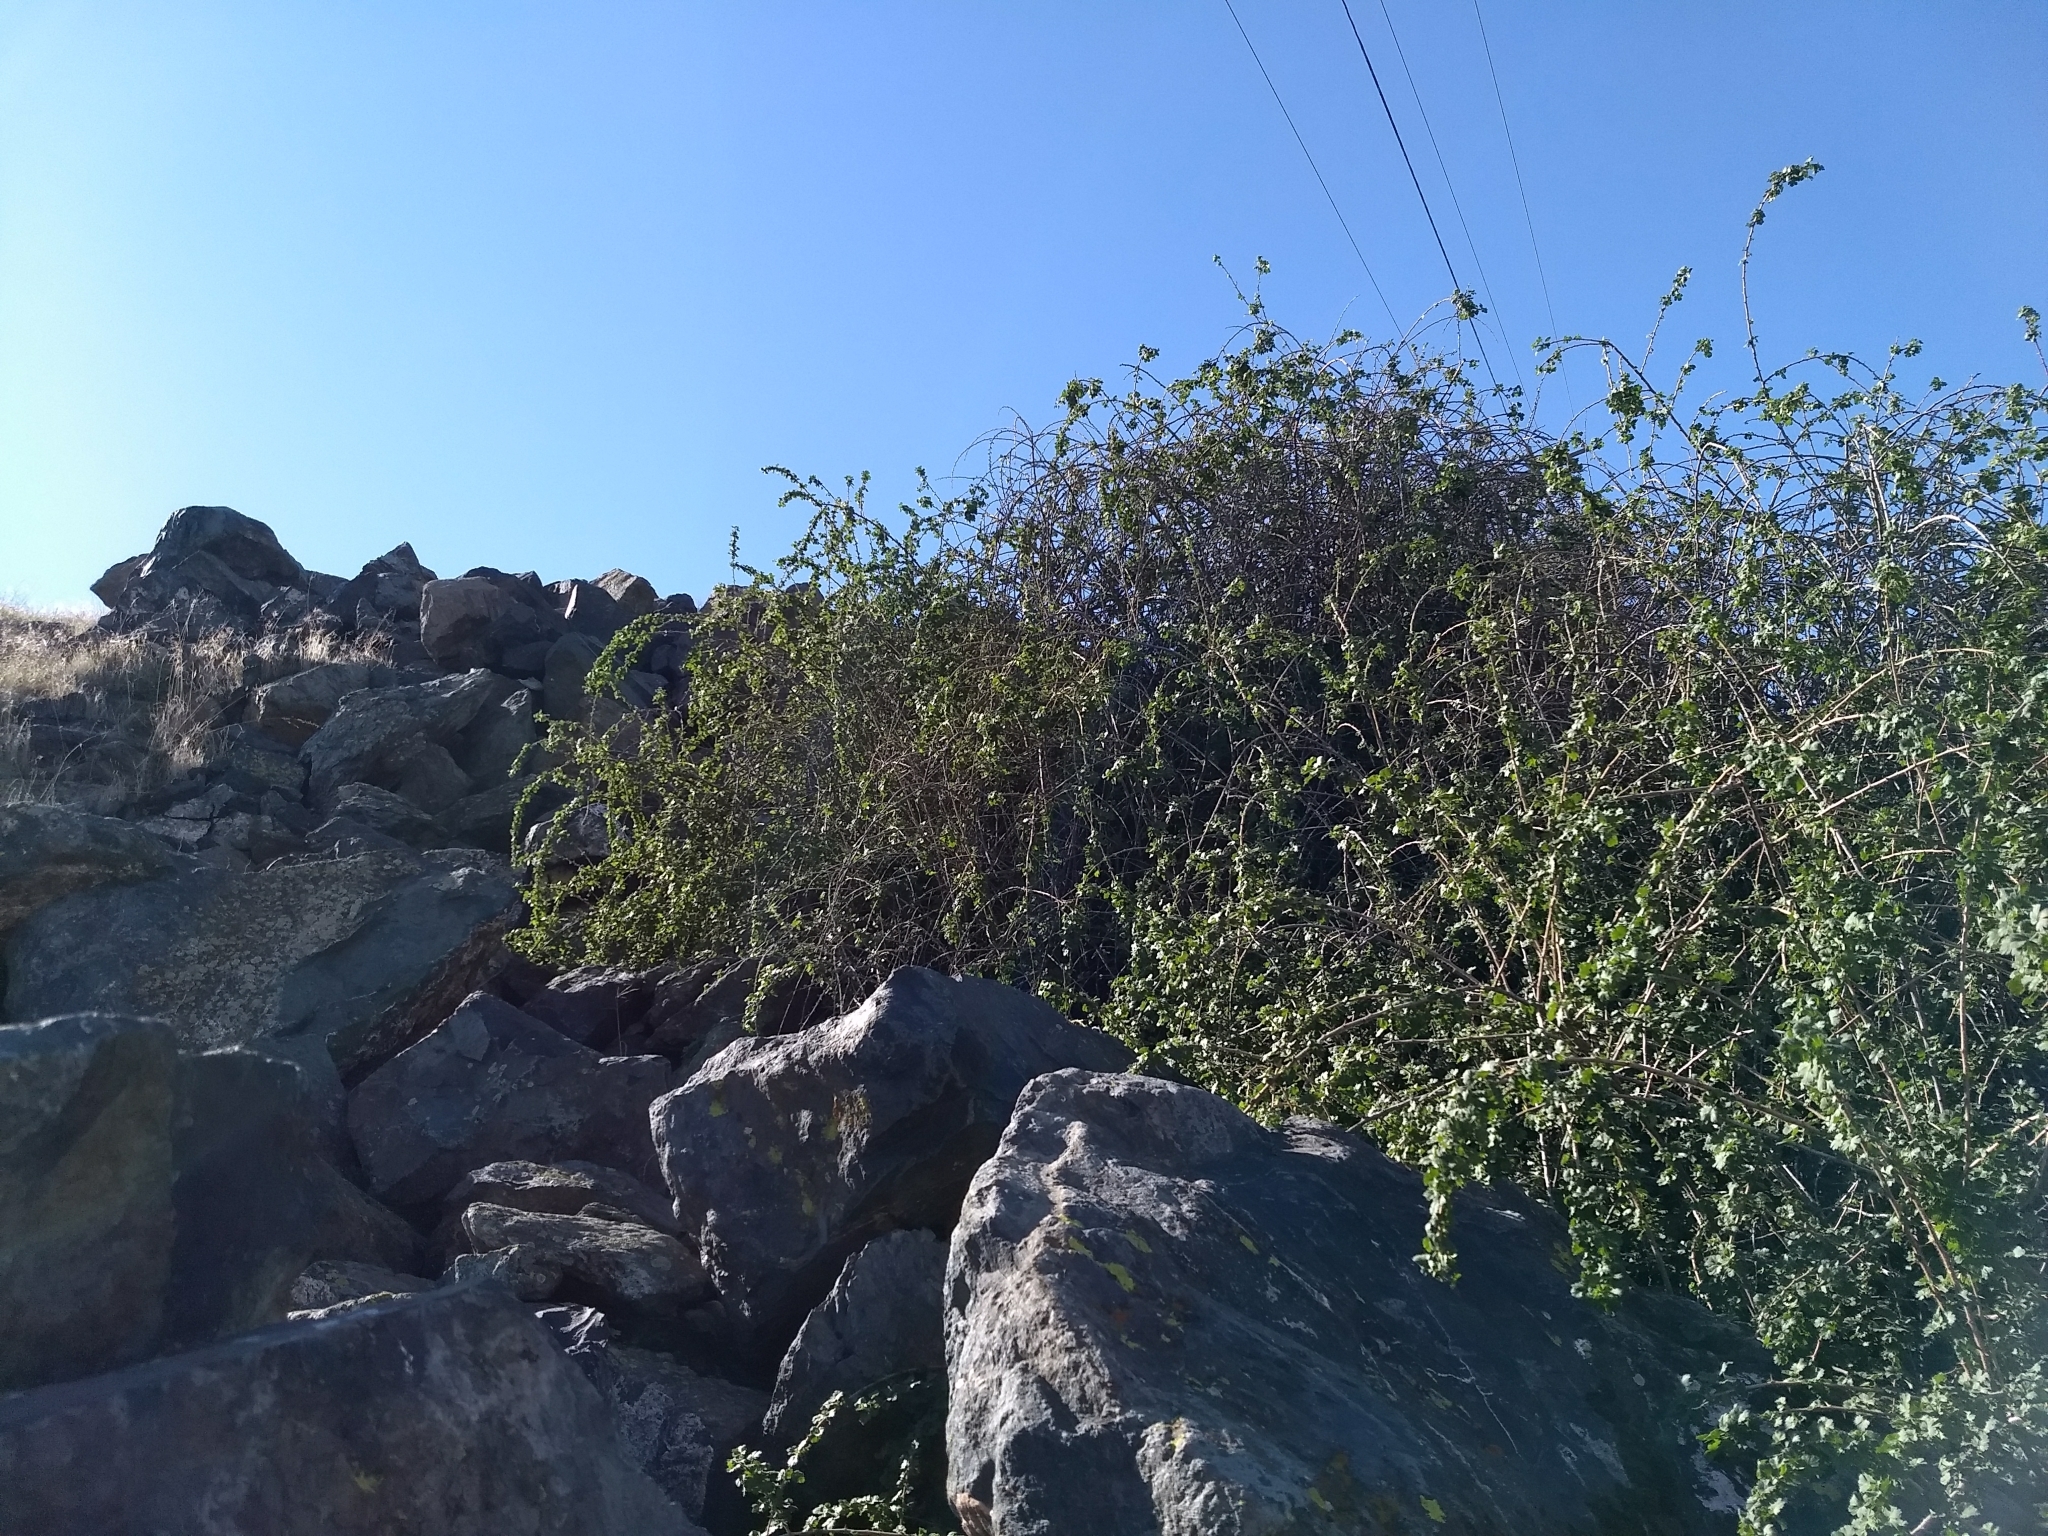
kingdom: Plantae
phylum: Tracheophyta
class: Magnoliopsida
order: Saxifragales
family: Grossulariaceae
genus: Ribes
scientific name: Ribes quercetorum
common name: Oak gooseberry
